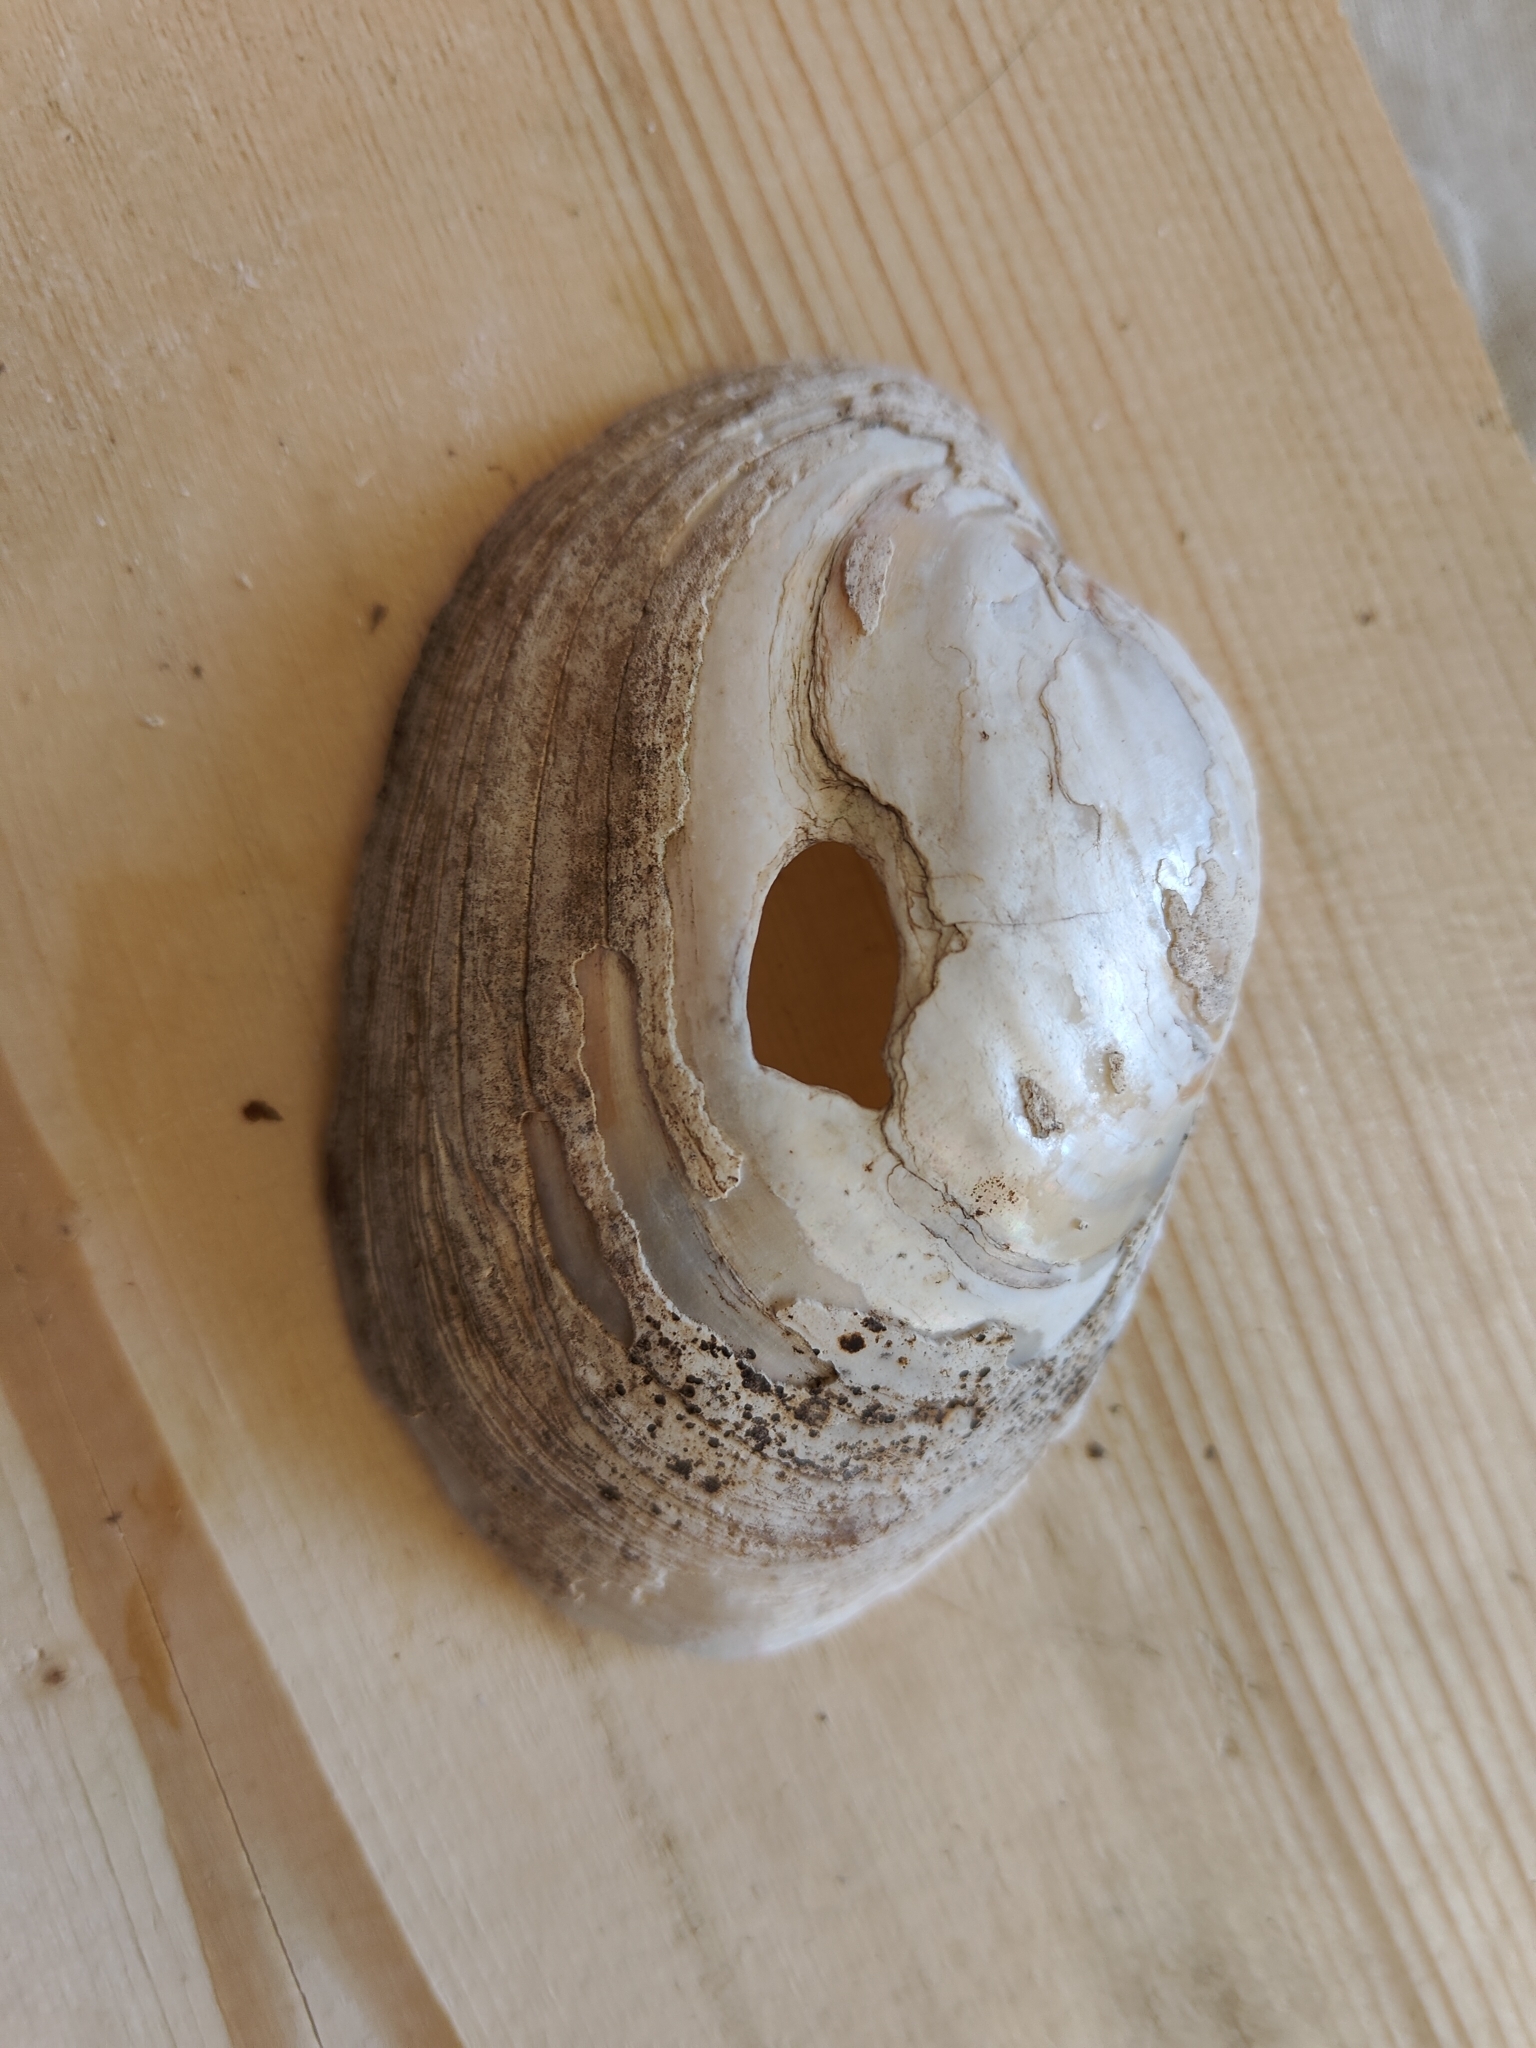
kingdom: Animalia
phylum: Mollusca
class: Bivalvia
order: Unionida
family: Unionidae
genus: Lampsilis
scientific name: Lampsilis cardium
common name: Plain pocketbook
